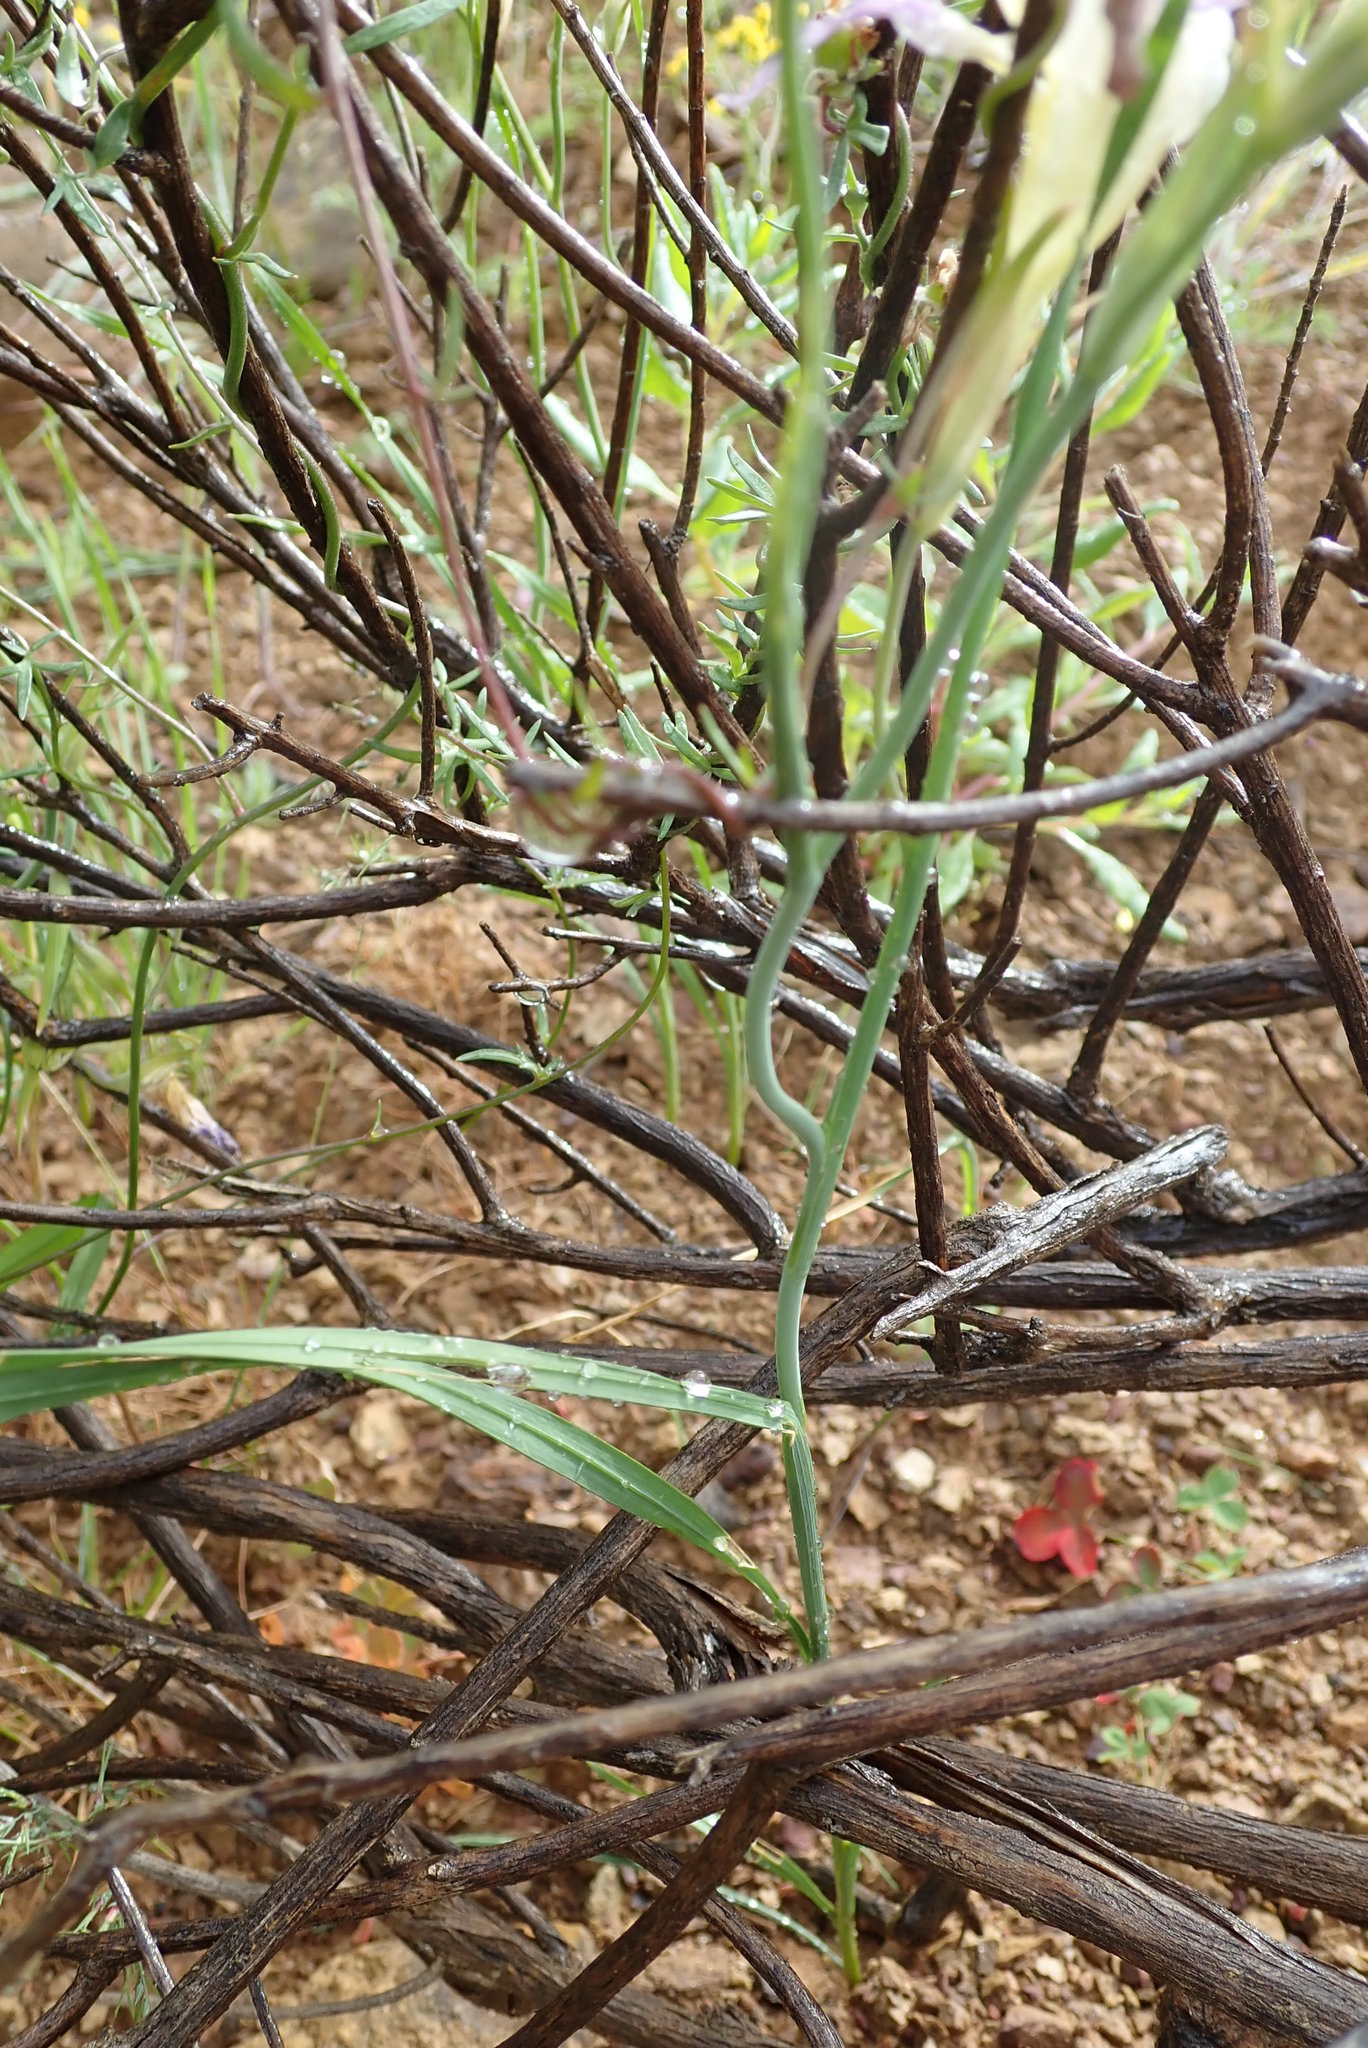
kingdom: Plantae
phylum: Tracheophyta
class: Liliopsida
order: Asparagales
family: Iridaceae
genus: Gladiolus
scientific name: Gladiolus venustus
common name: Purple kalkoentjie
